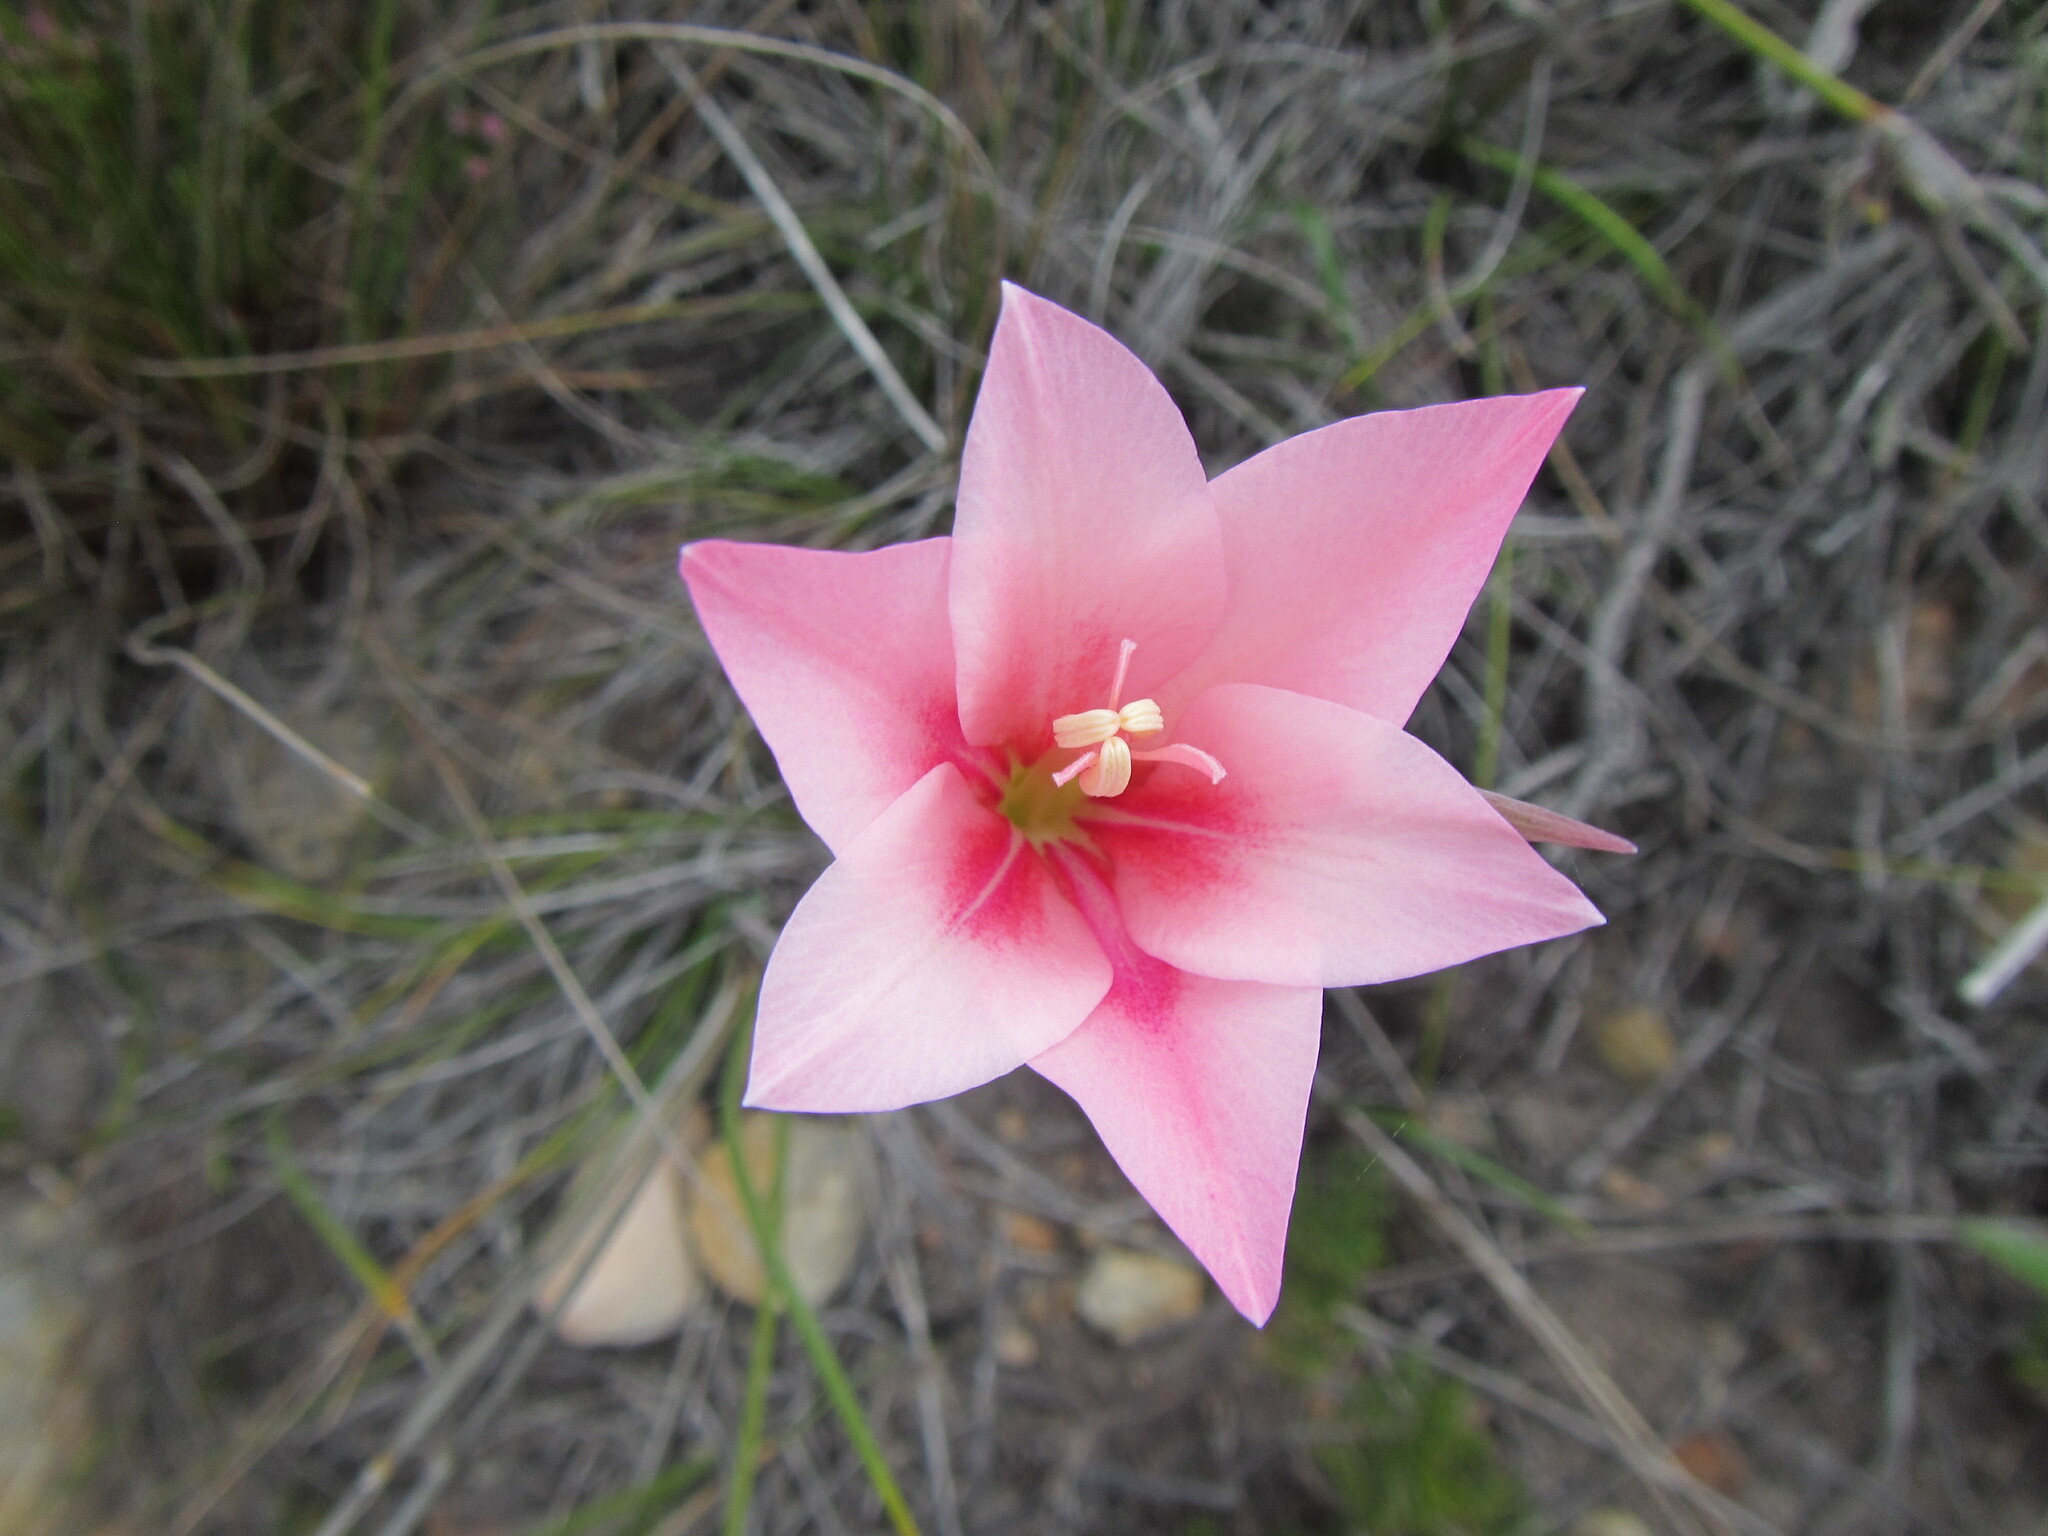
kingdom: Plantae
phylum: Tracheophyta
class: Liliopsida
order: Asparagales
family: Iridaceae
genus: Gladiolus
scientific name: Gladiolus carmineus
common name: Hermanus gladiolus
